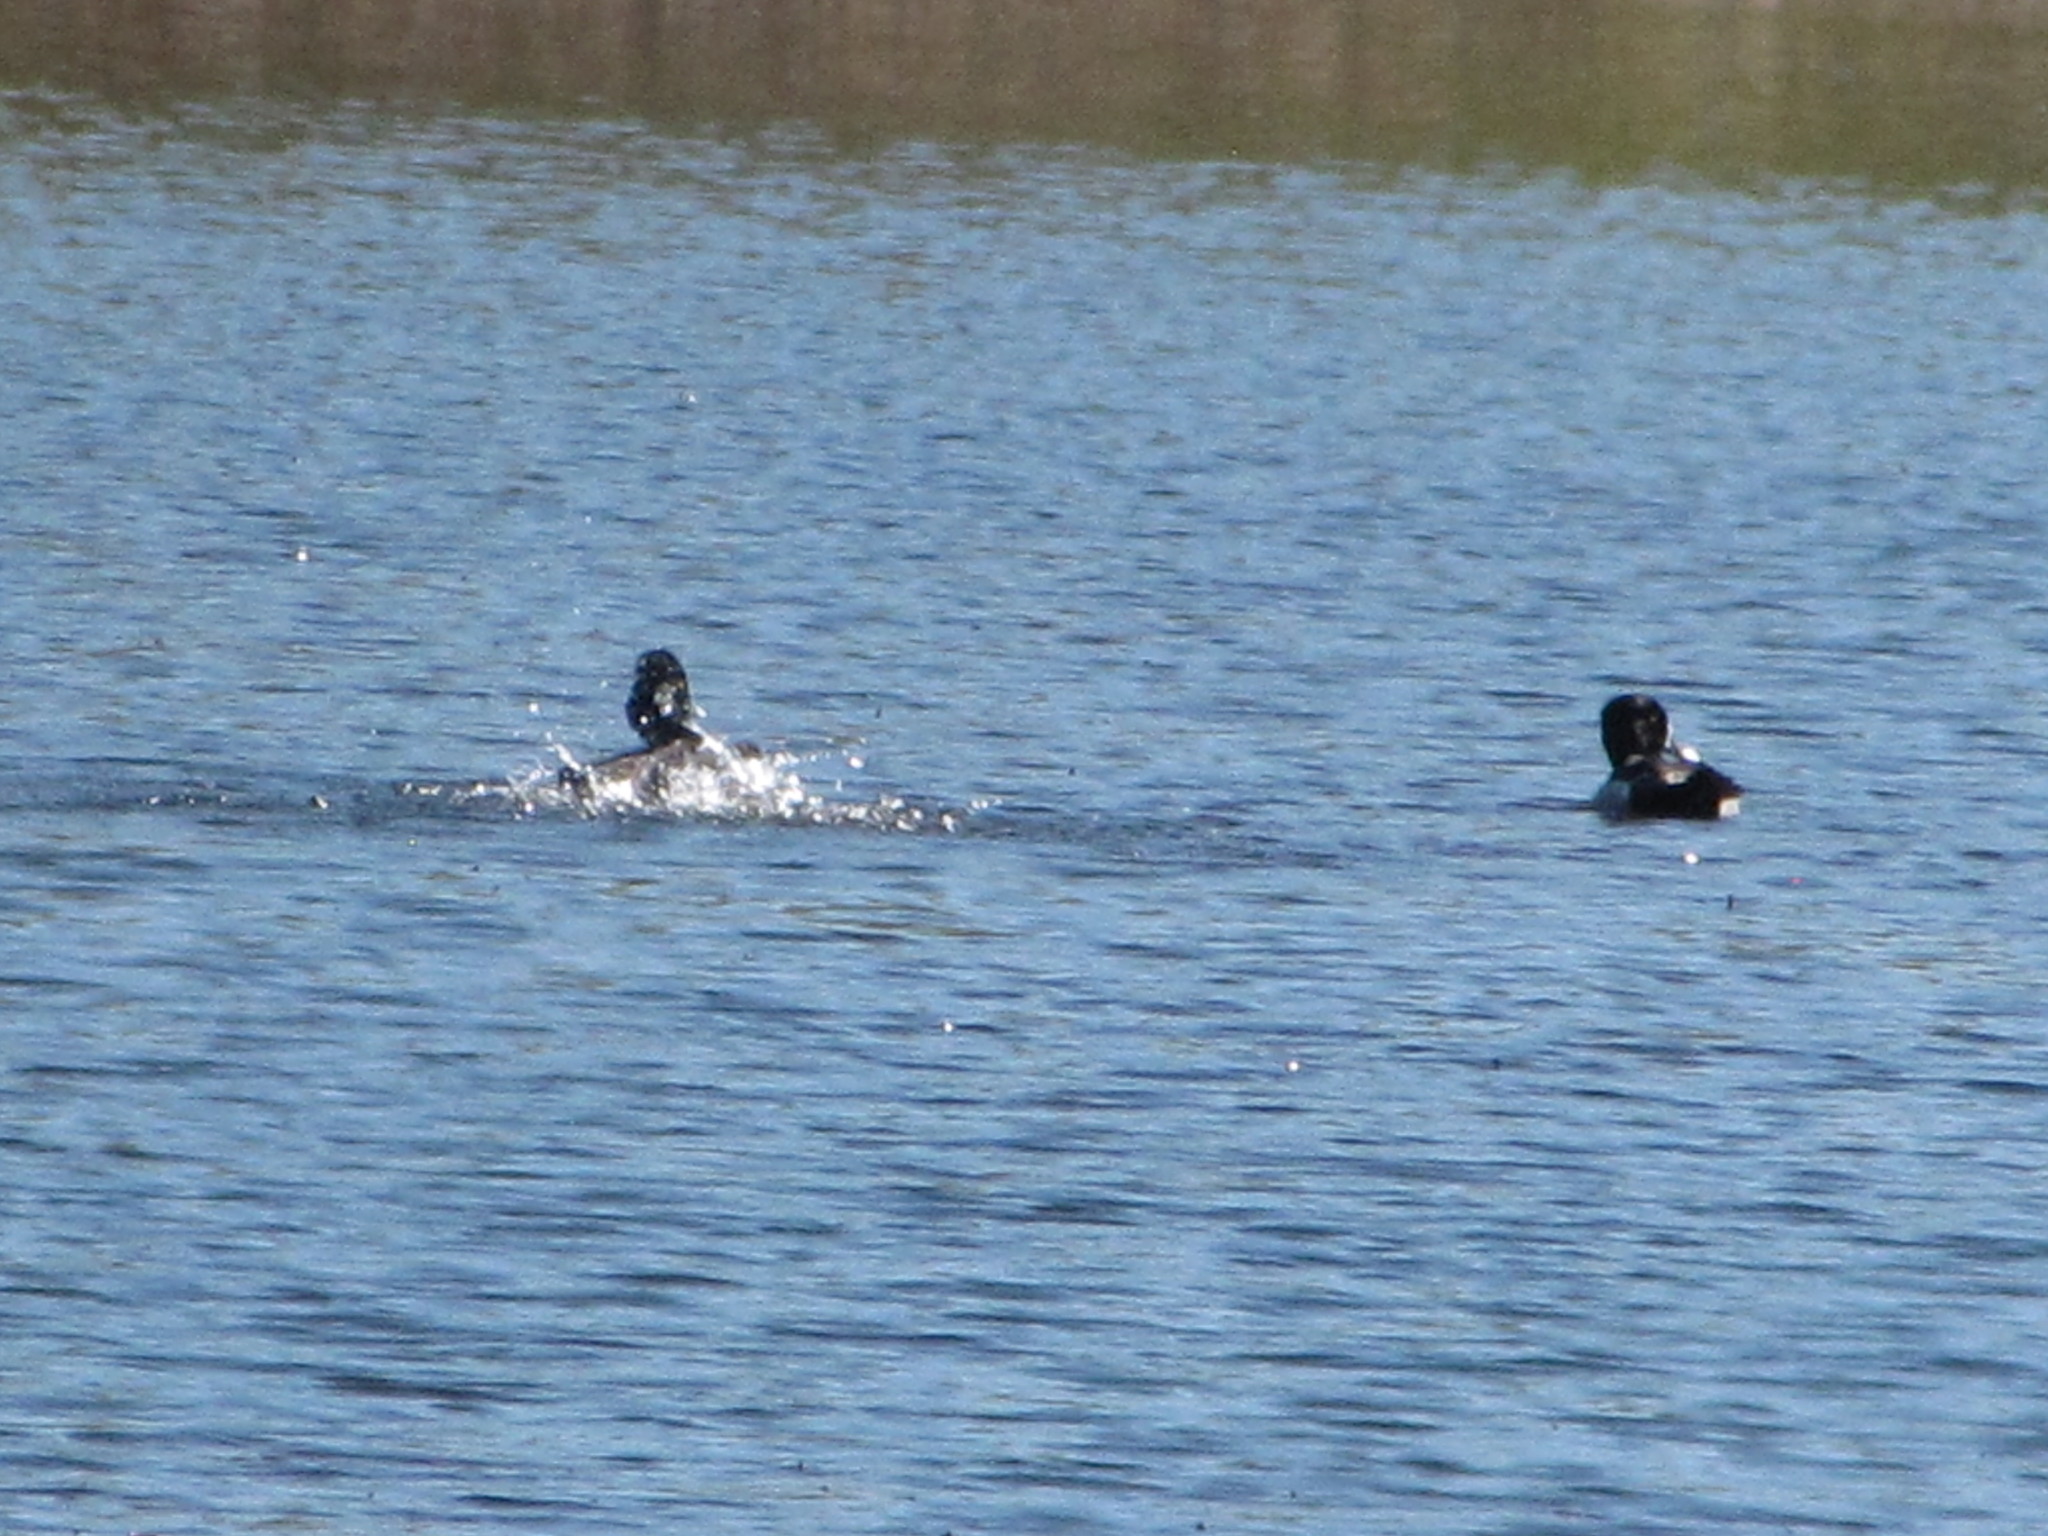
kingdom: Animalia
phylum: Chordata
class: Aves
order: Anseriformes
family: Anatidae
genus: Aythya
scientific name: Aythya collaris
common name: Ring-necked duck
